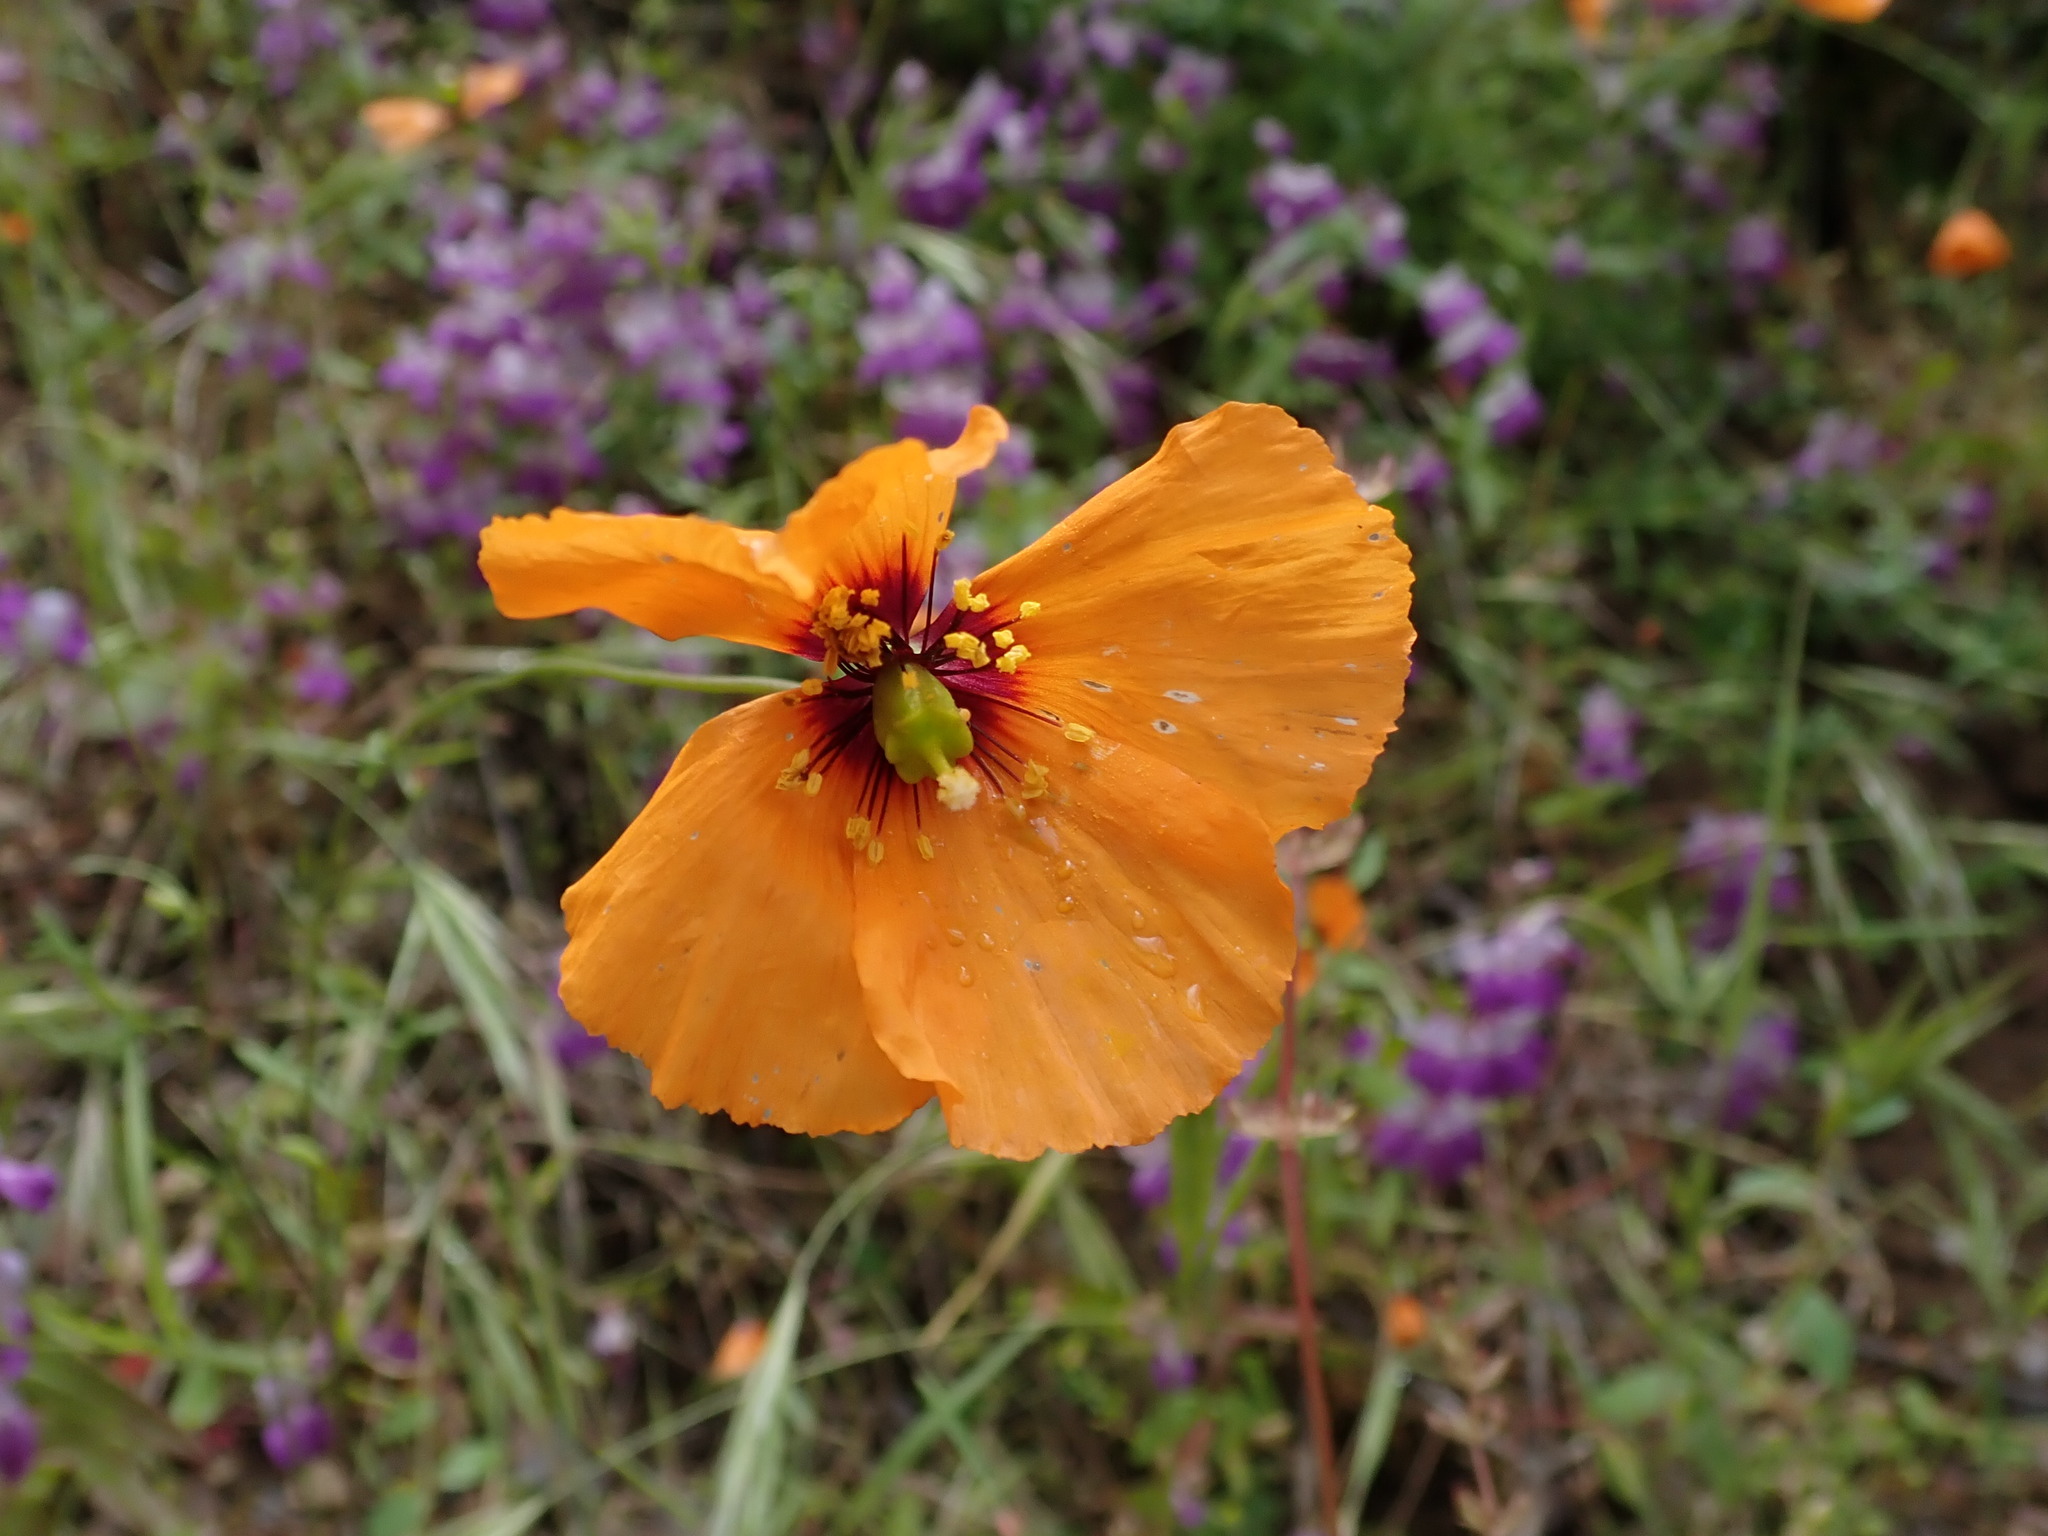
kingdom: Plantae
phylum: Tracheophyta
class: Magnoliopsida
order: Ranunculales
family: Papaveraceae
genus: Stylomecon
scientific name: Stylomecon heterophylla
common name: Flaming-poppy
